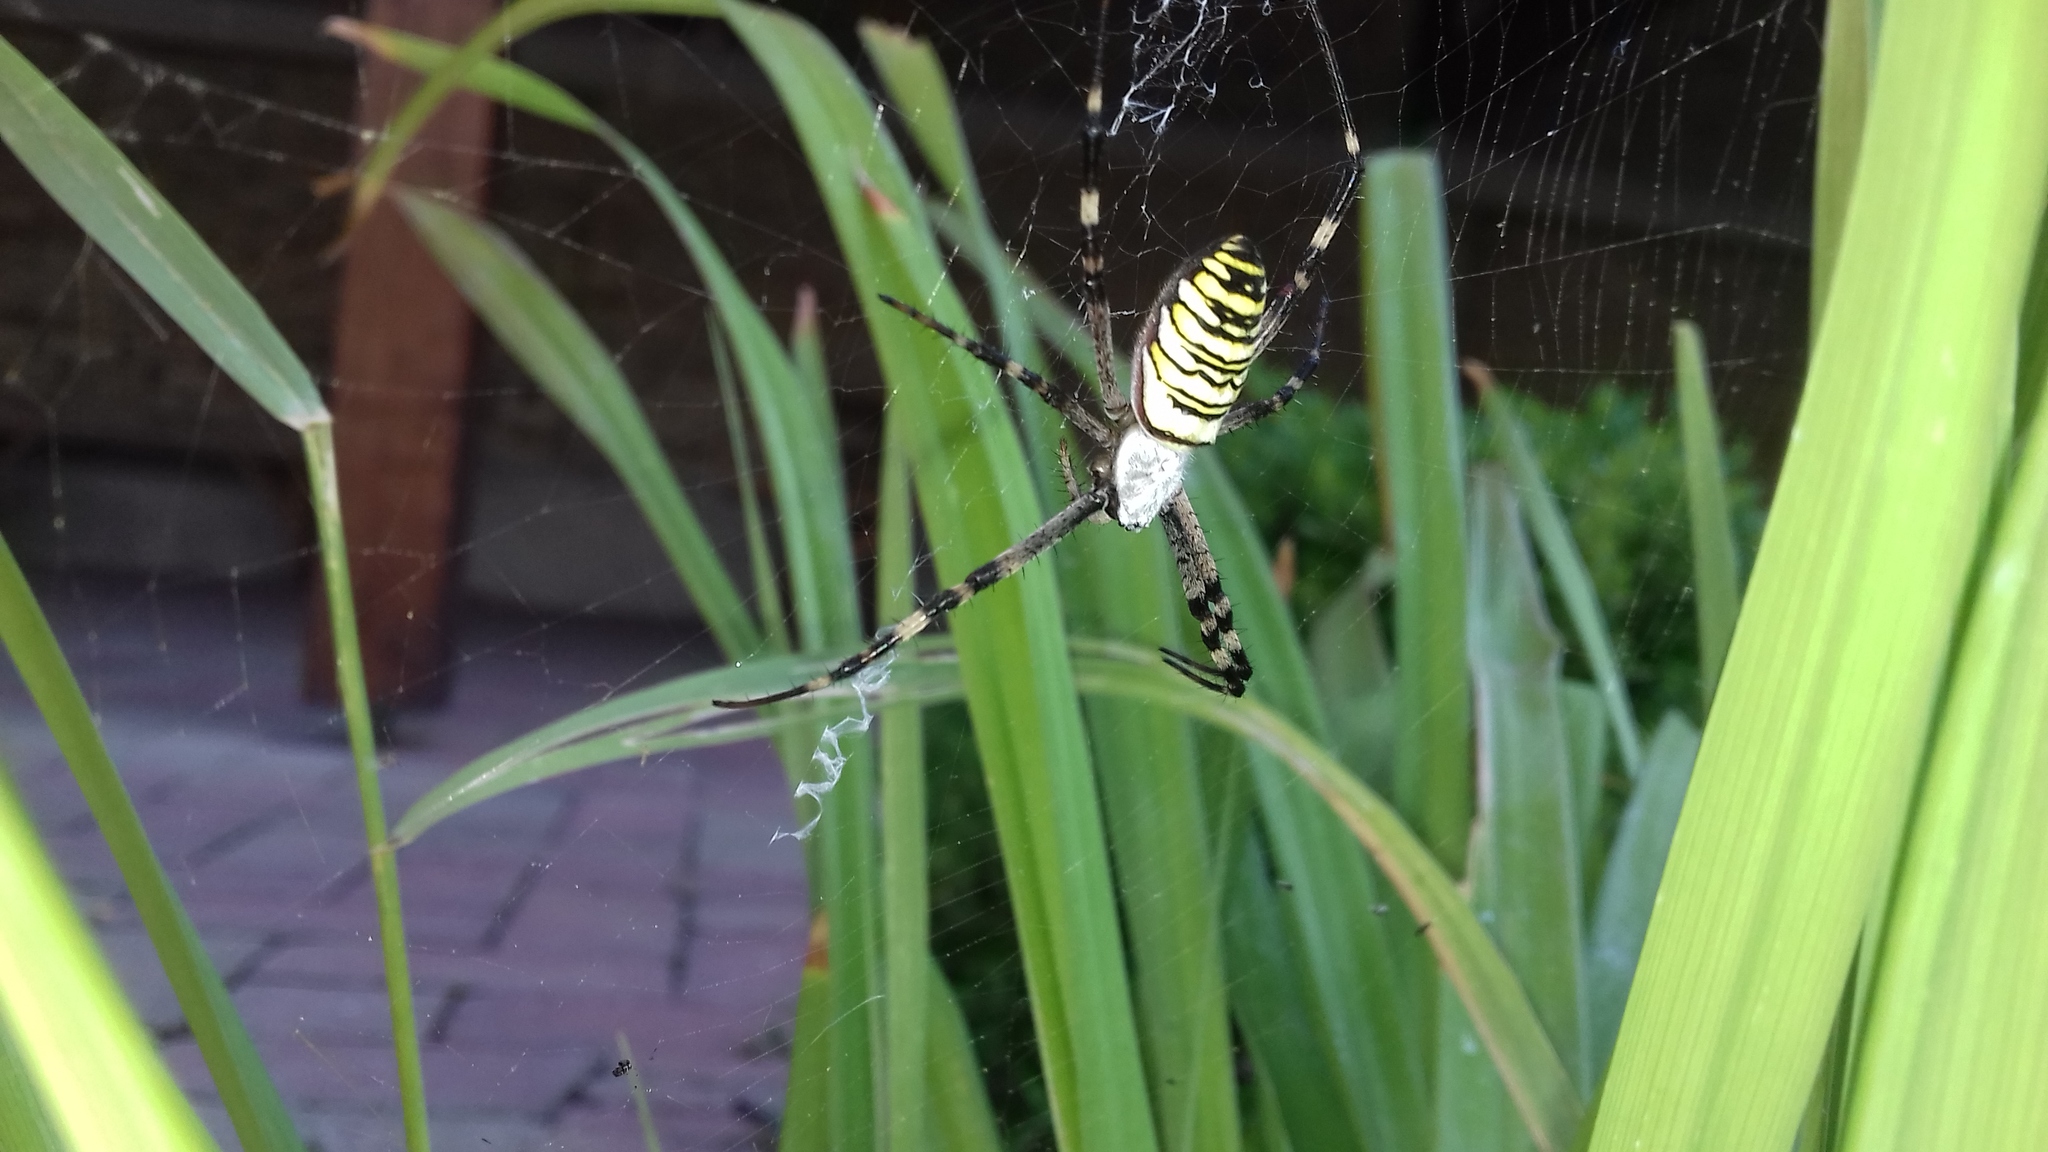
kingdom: Animalia
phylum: Arthropoda
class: Arachnida
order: Araneae
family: Araneidae
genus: Argiope
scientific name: Argiope bruennichi
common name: Wasp spider
